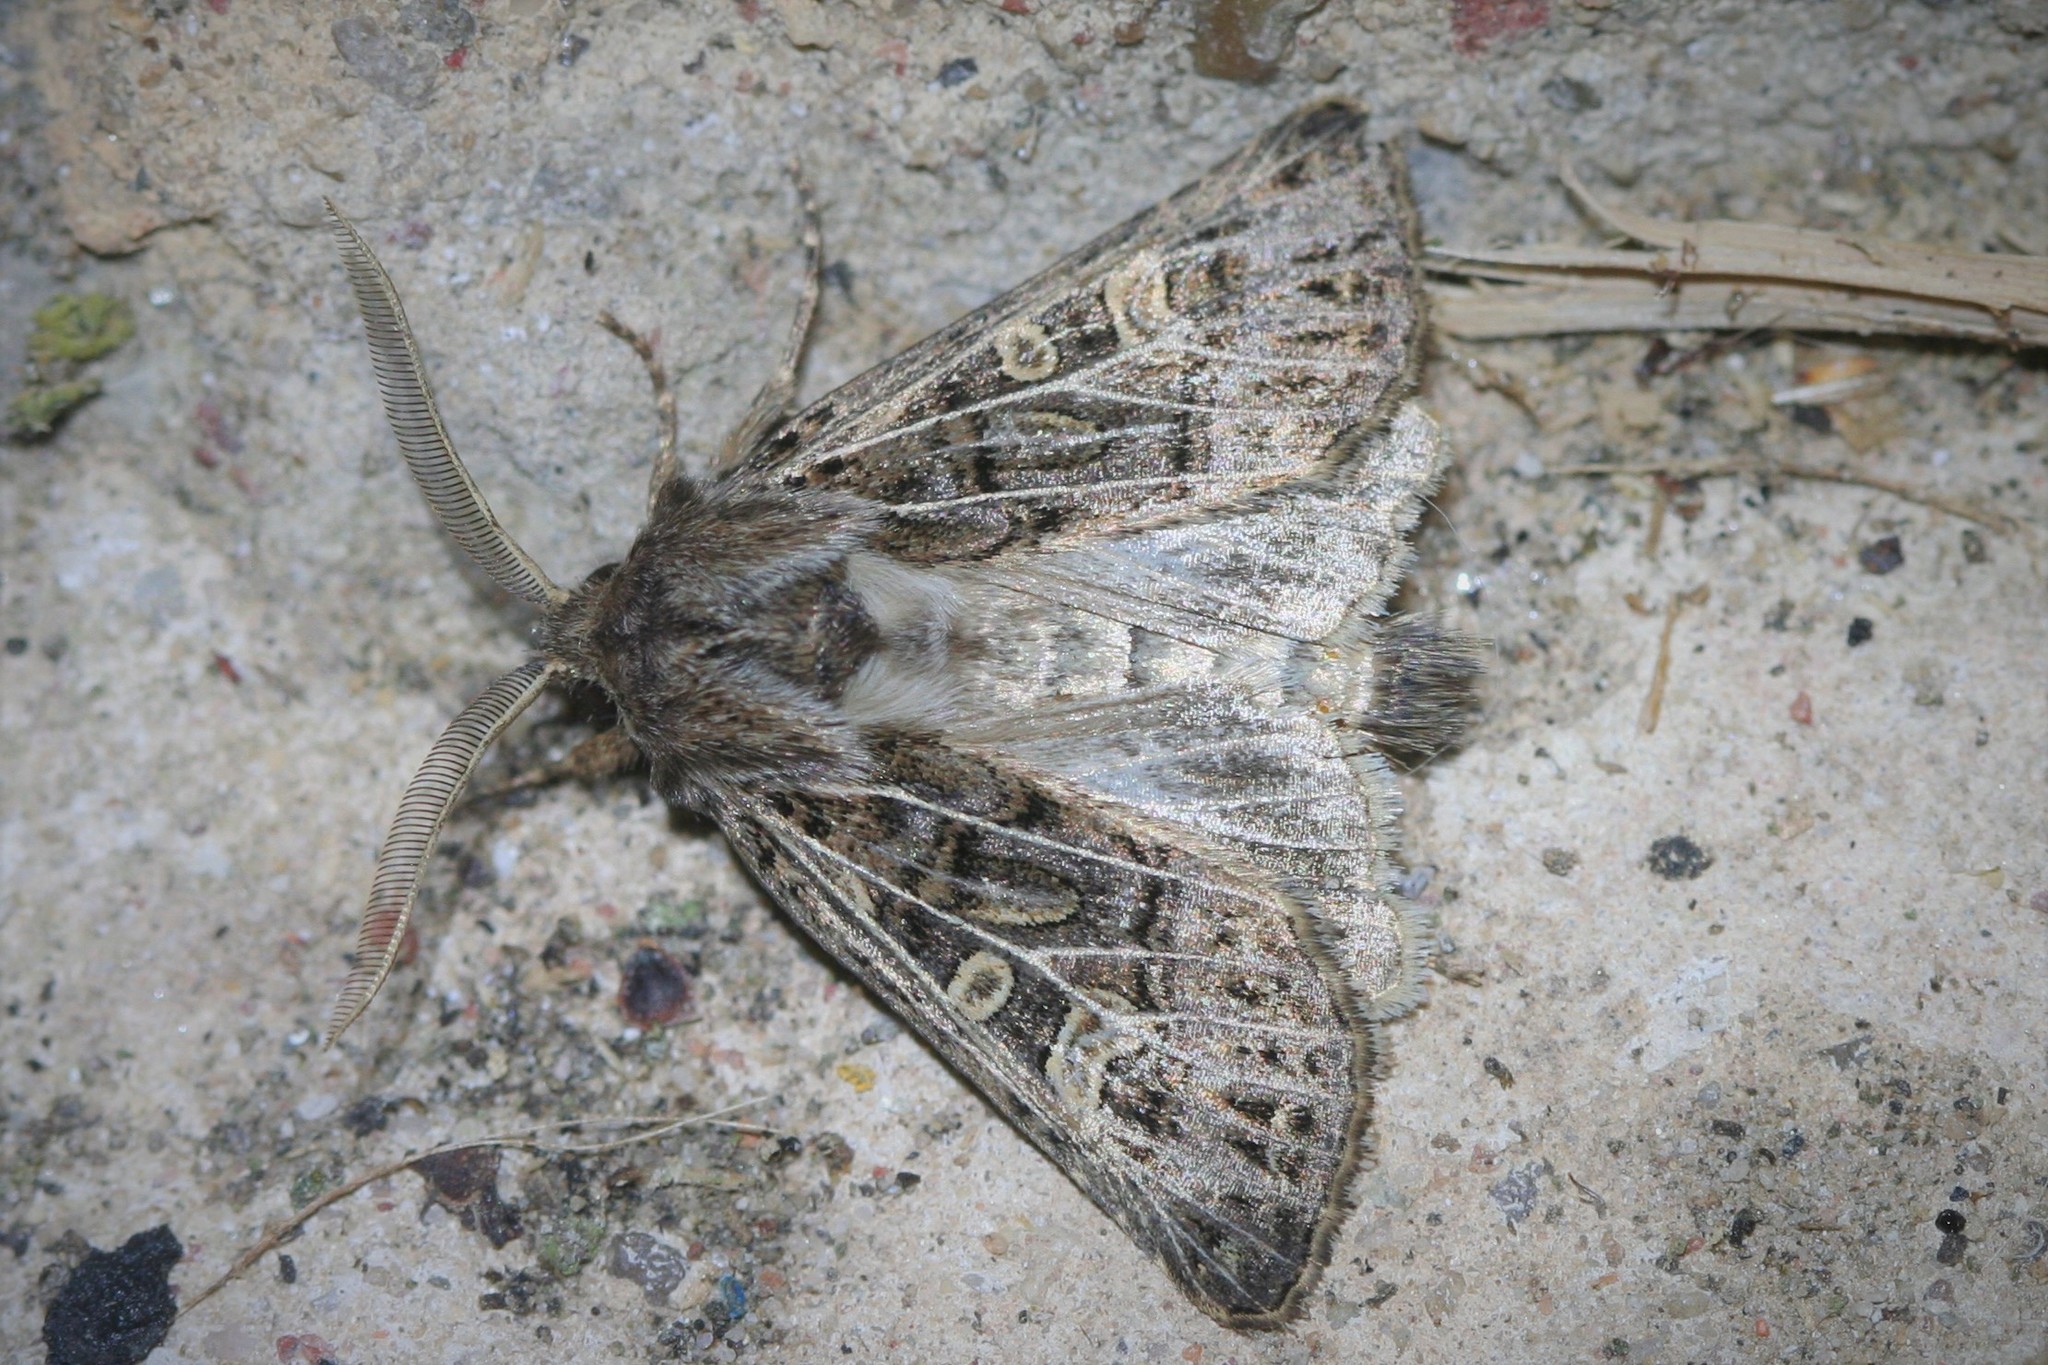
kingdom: Animalia
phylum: Arthropoda
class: Insecta
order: Lepidoptera
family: Noctuidae
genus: Tholera
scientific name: Tholera decimalis
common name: Feathered gothic
